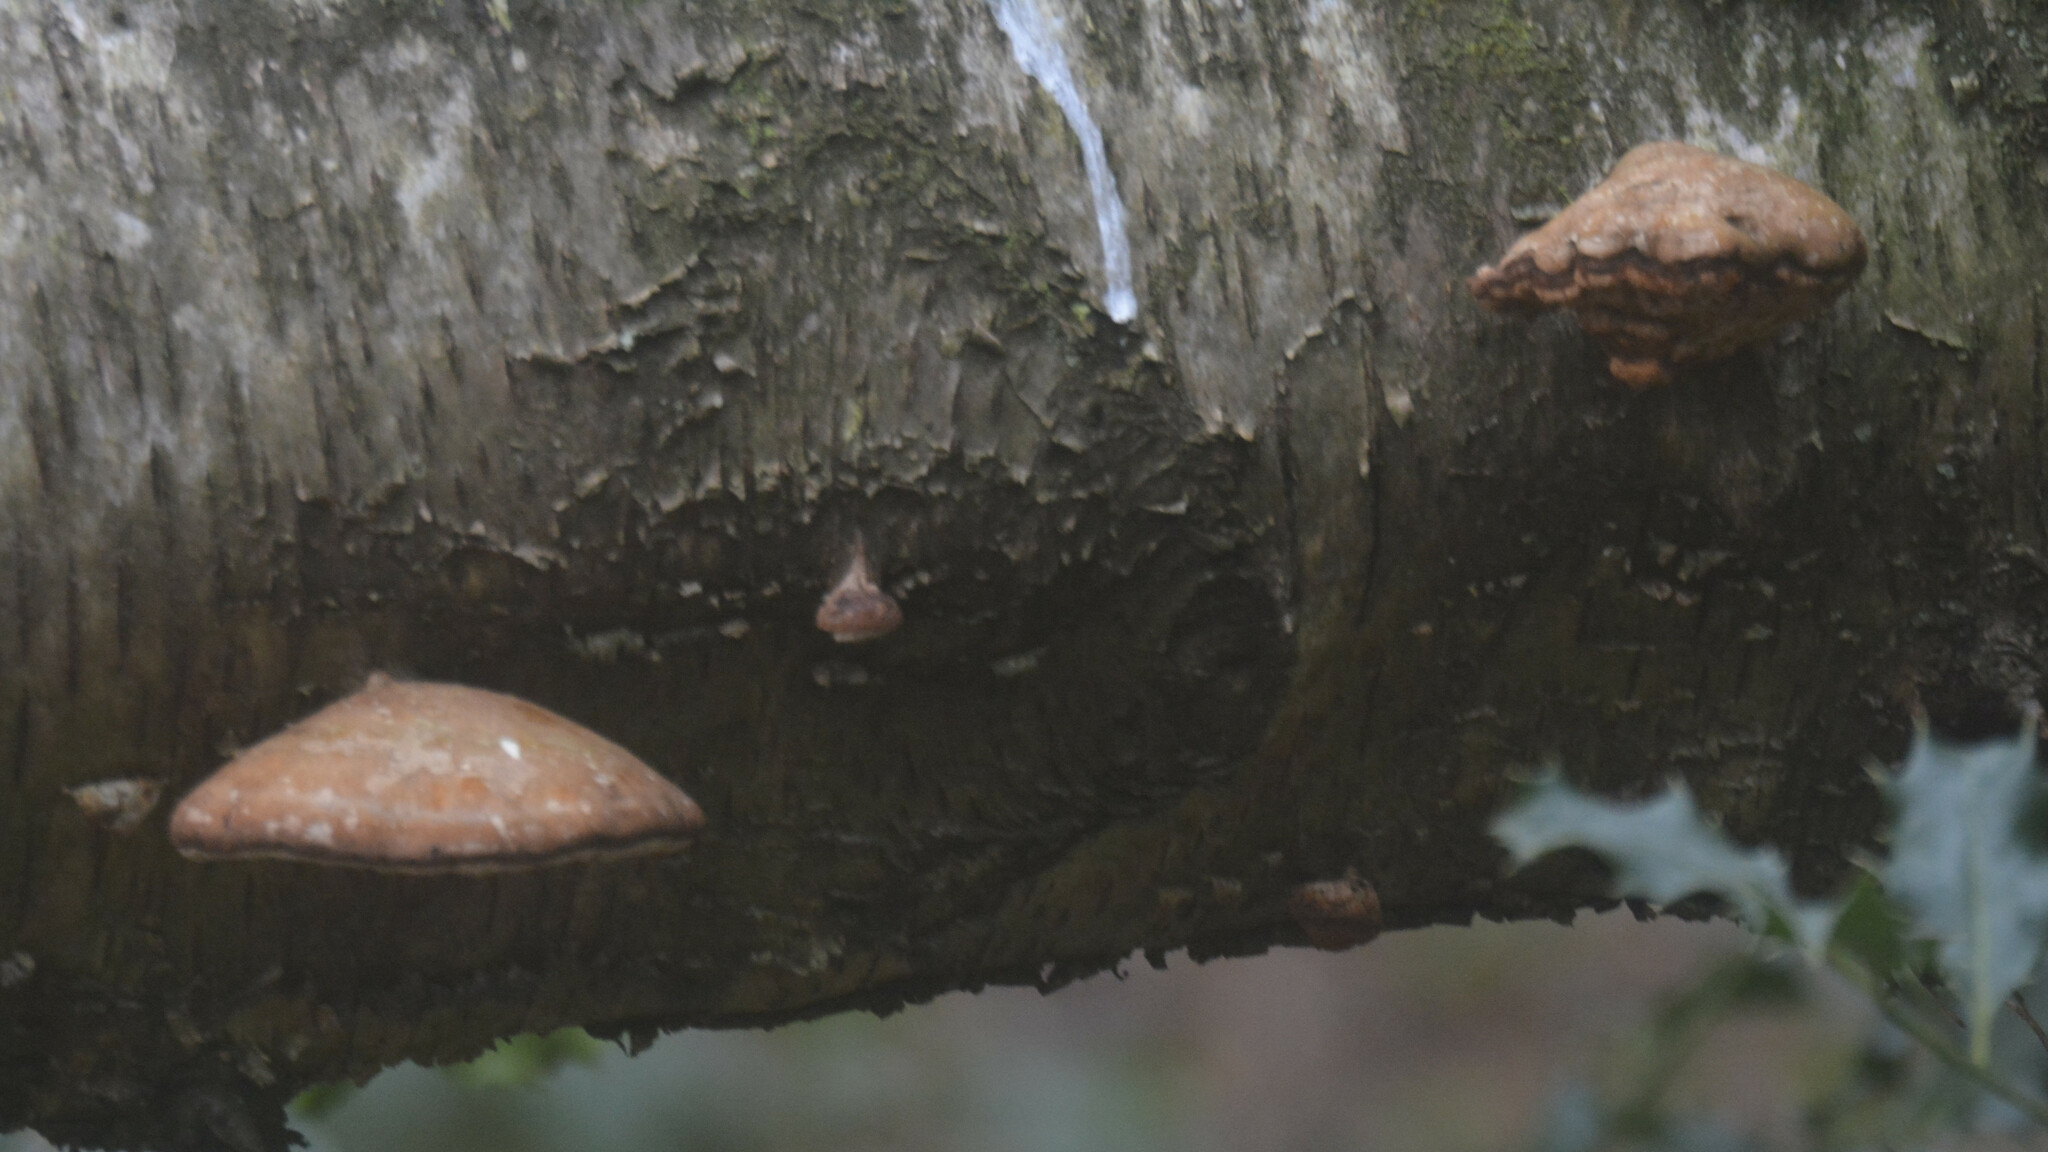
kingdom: Fungi
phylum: Basidiomycota
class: Agaricomycetes
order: Polyporales
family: Fomitopsidaceae
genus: Fomitopsis
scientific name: Fomitopsis betulina
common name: Birch polypore
